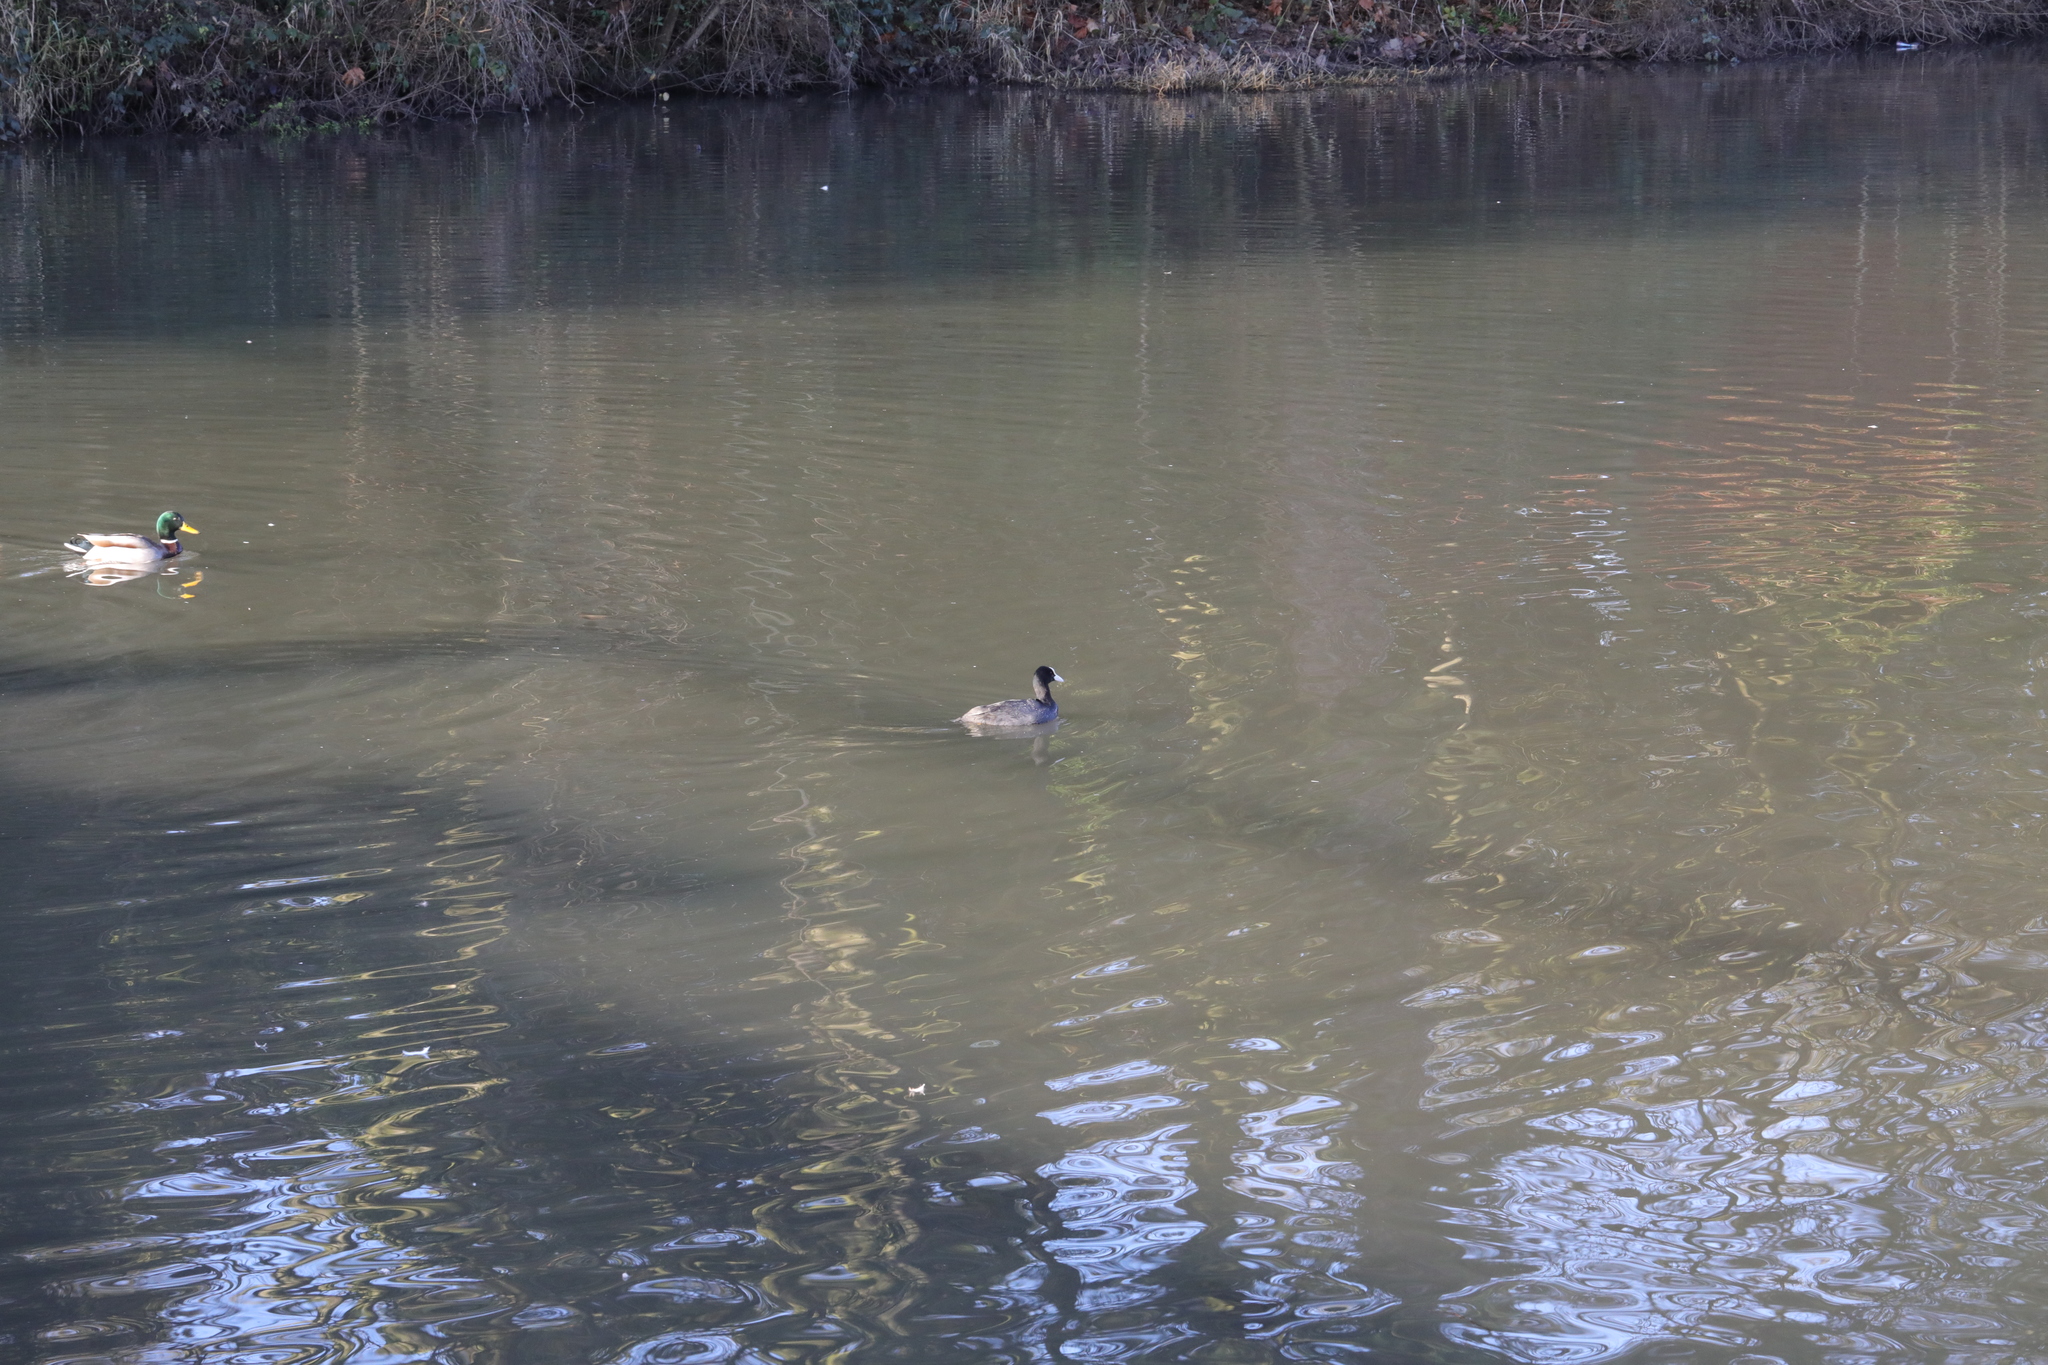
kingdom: Animalia
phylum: Chordata
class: Aves
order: Gruiformes
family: Rallidae
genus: Fulica
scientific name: Fulica atra
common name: Eurasian coot
